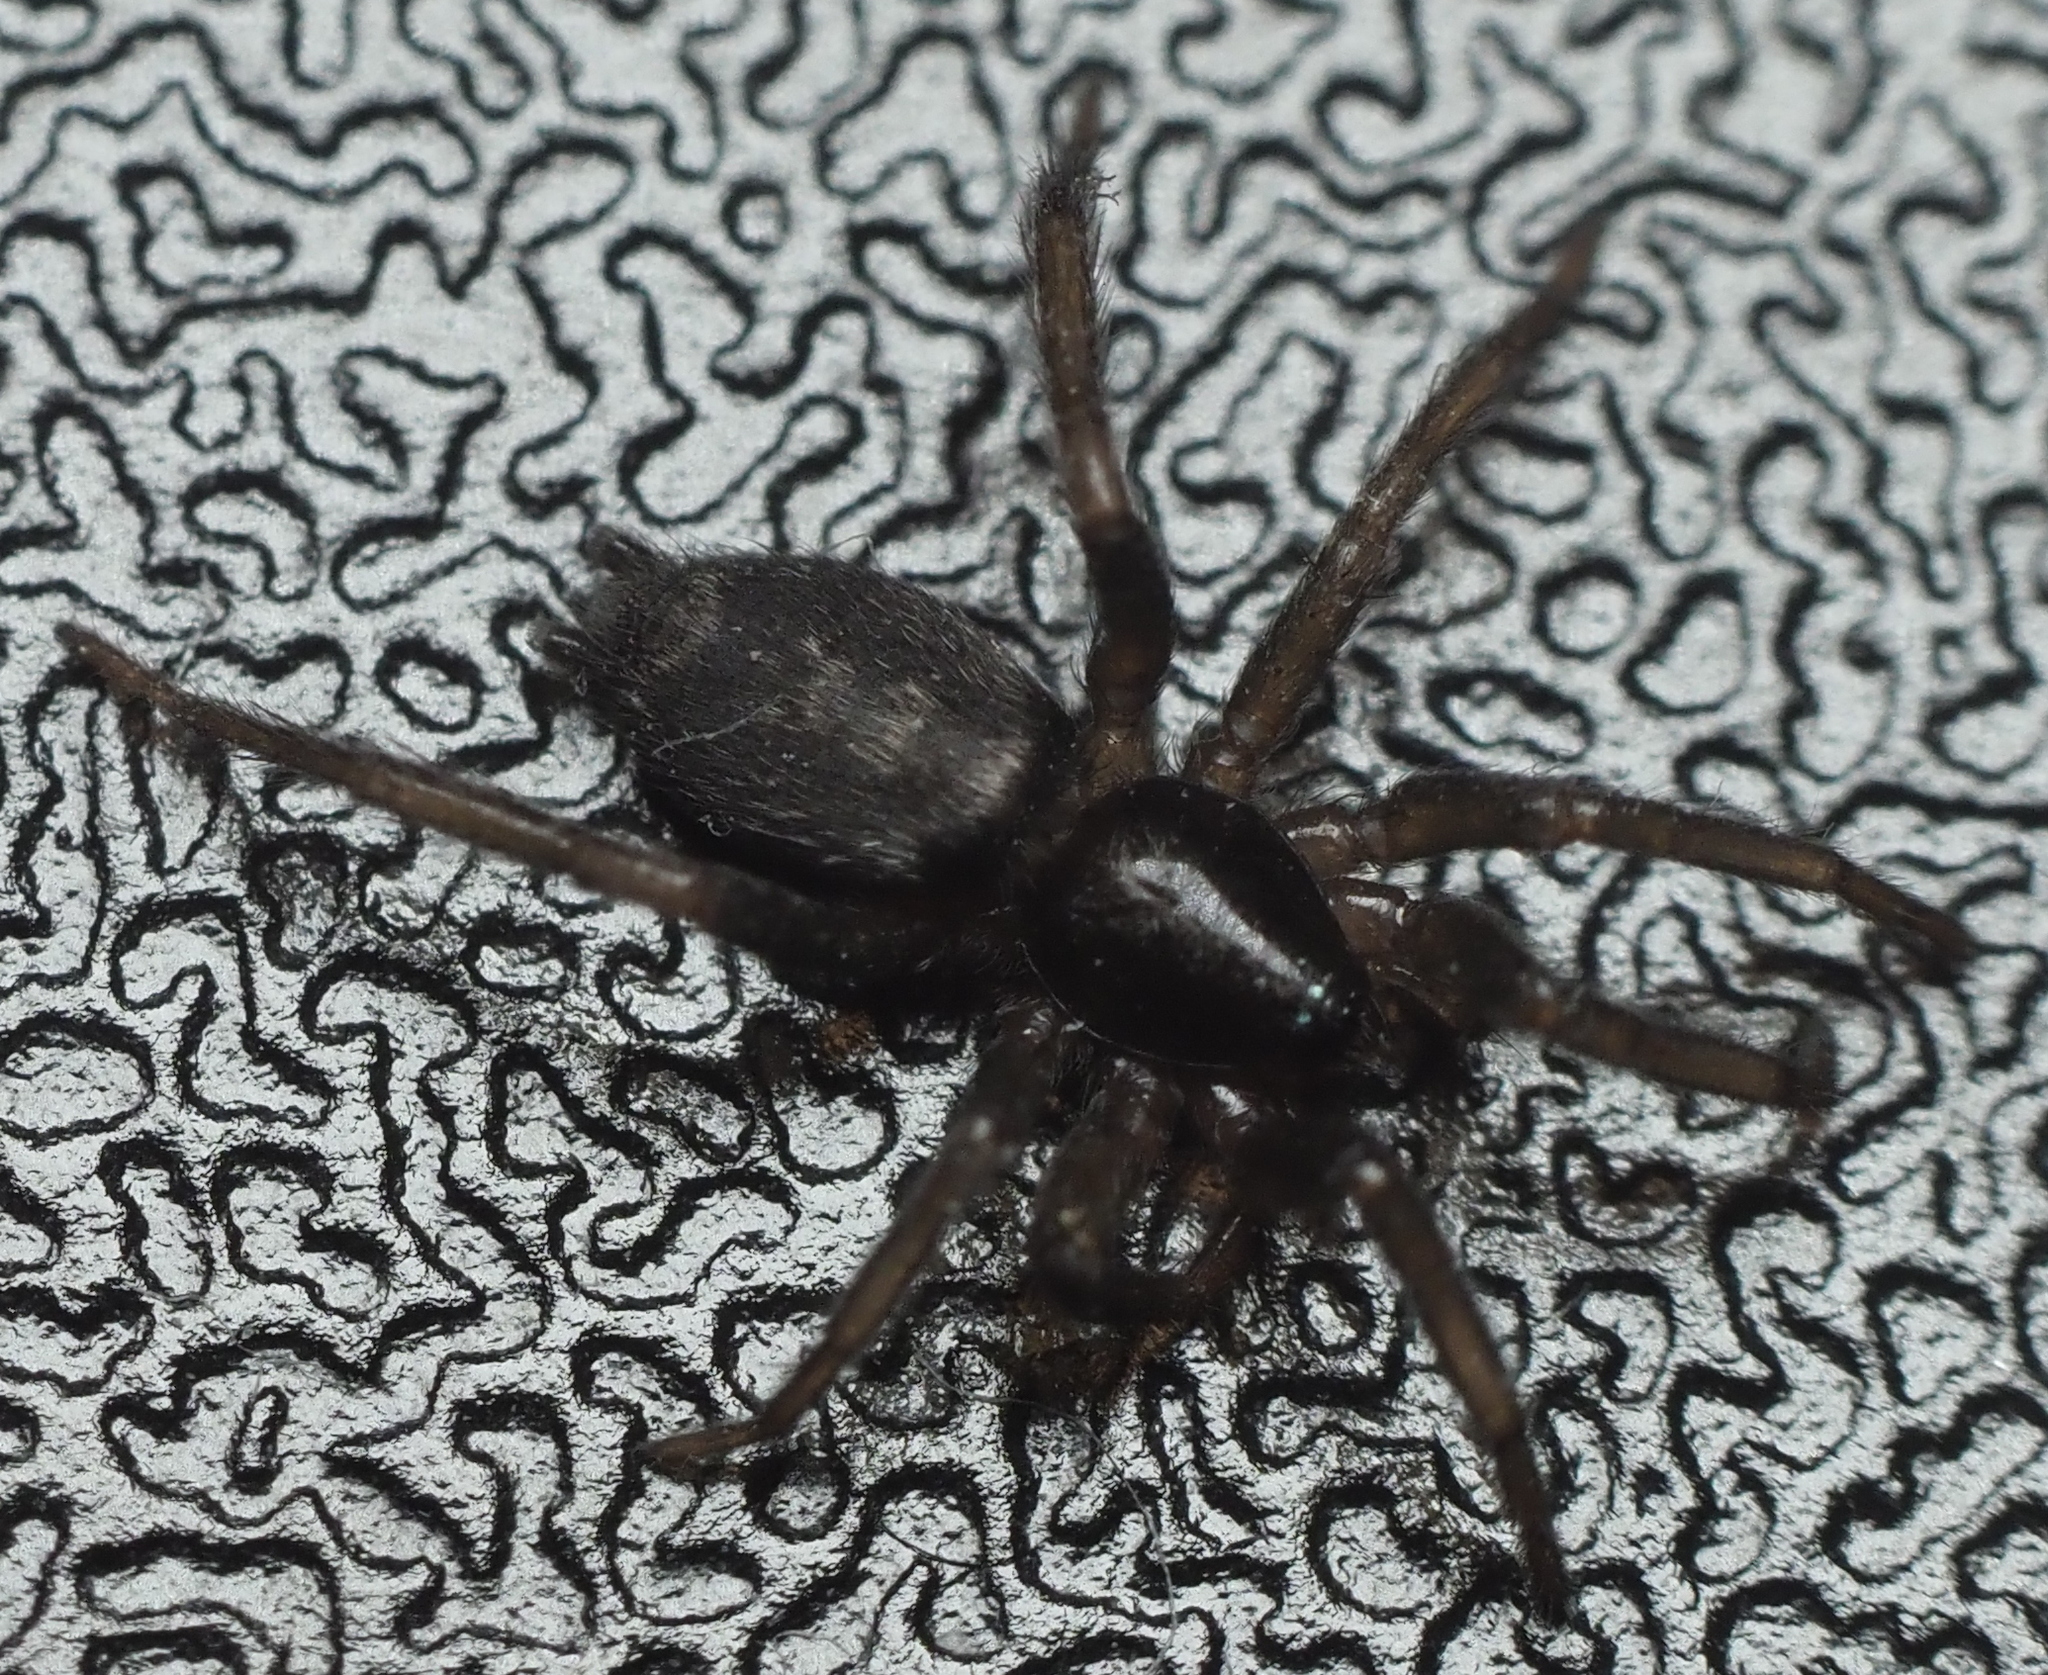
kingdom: Animalia
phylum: Arthropoda
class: Arachnida
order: Araneae
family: Gnaphosidae
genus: Herpyllus
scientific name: Herpyllus ecclesiasticus
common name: Eastern parson spider
